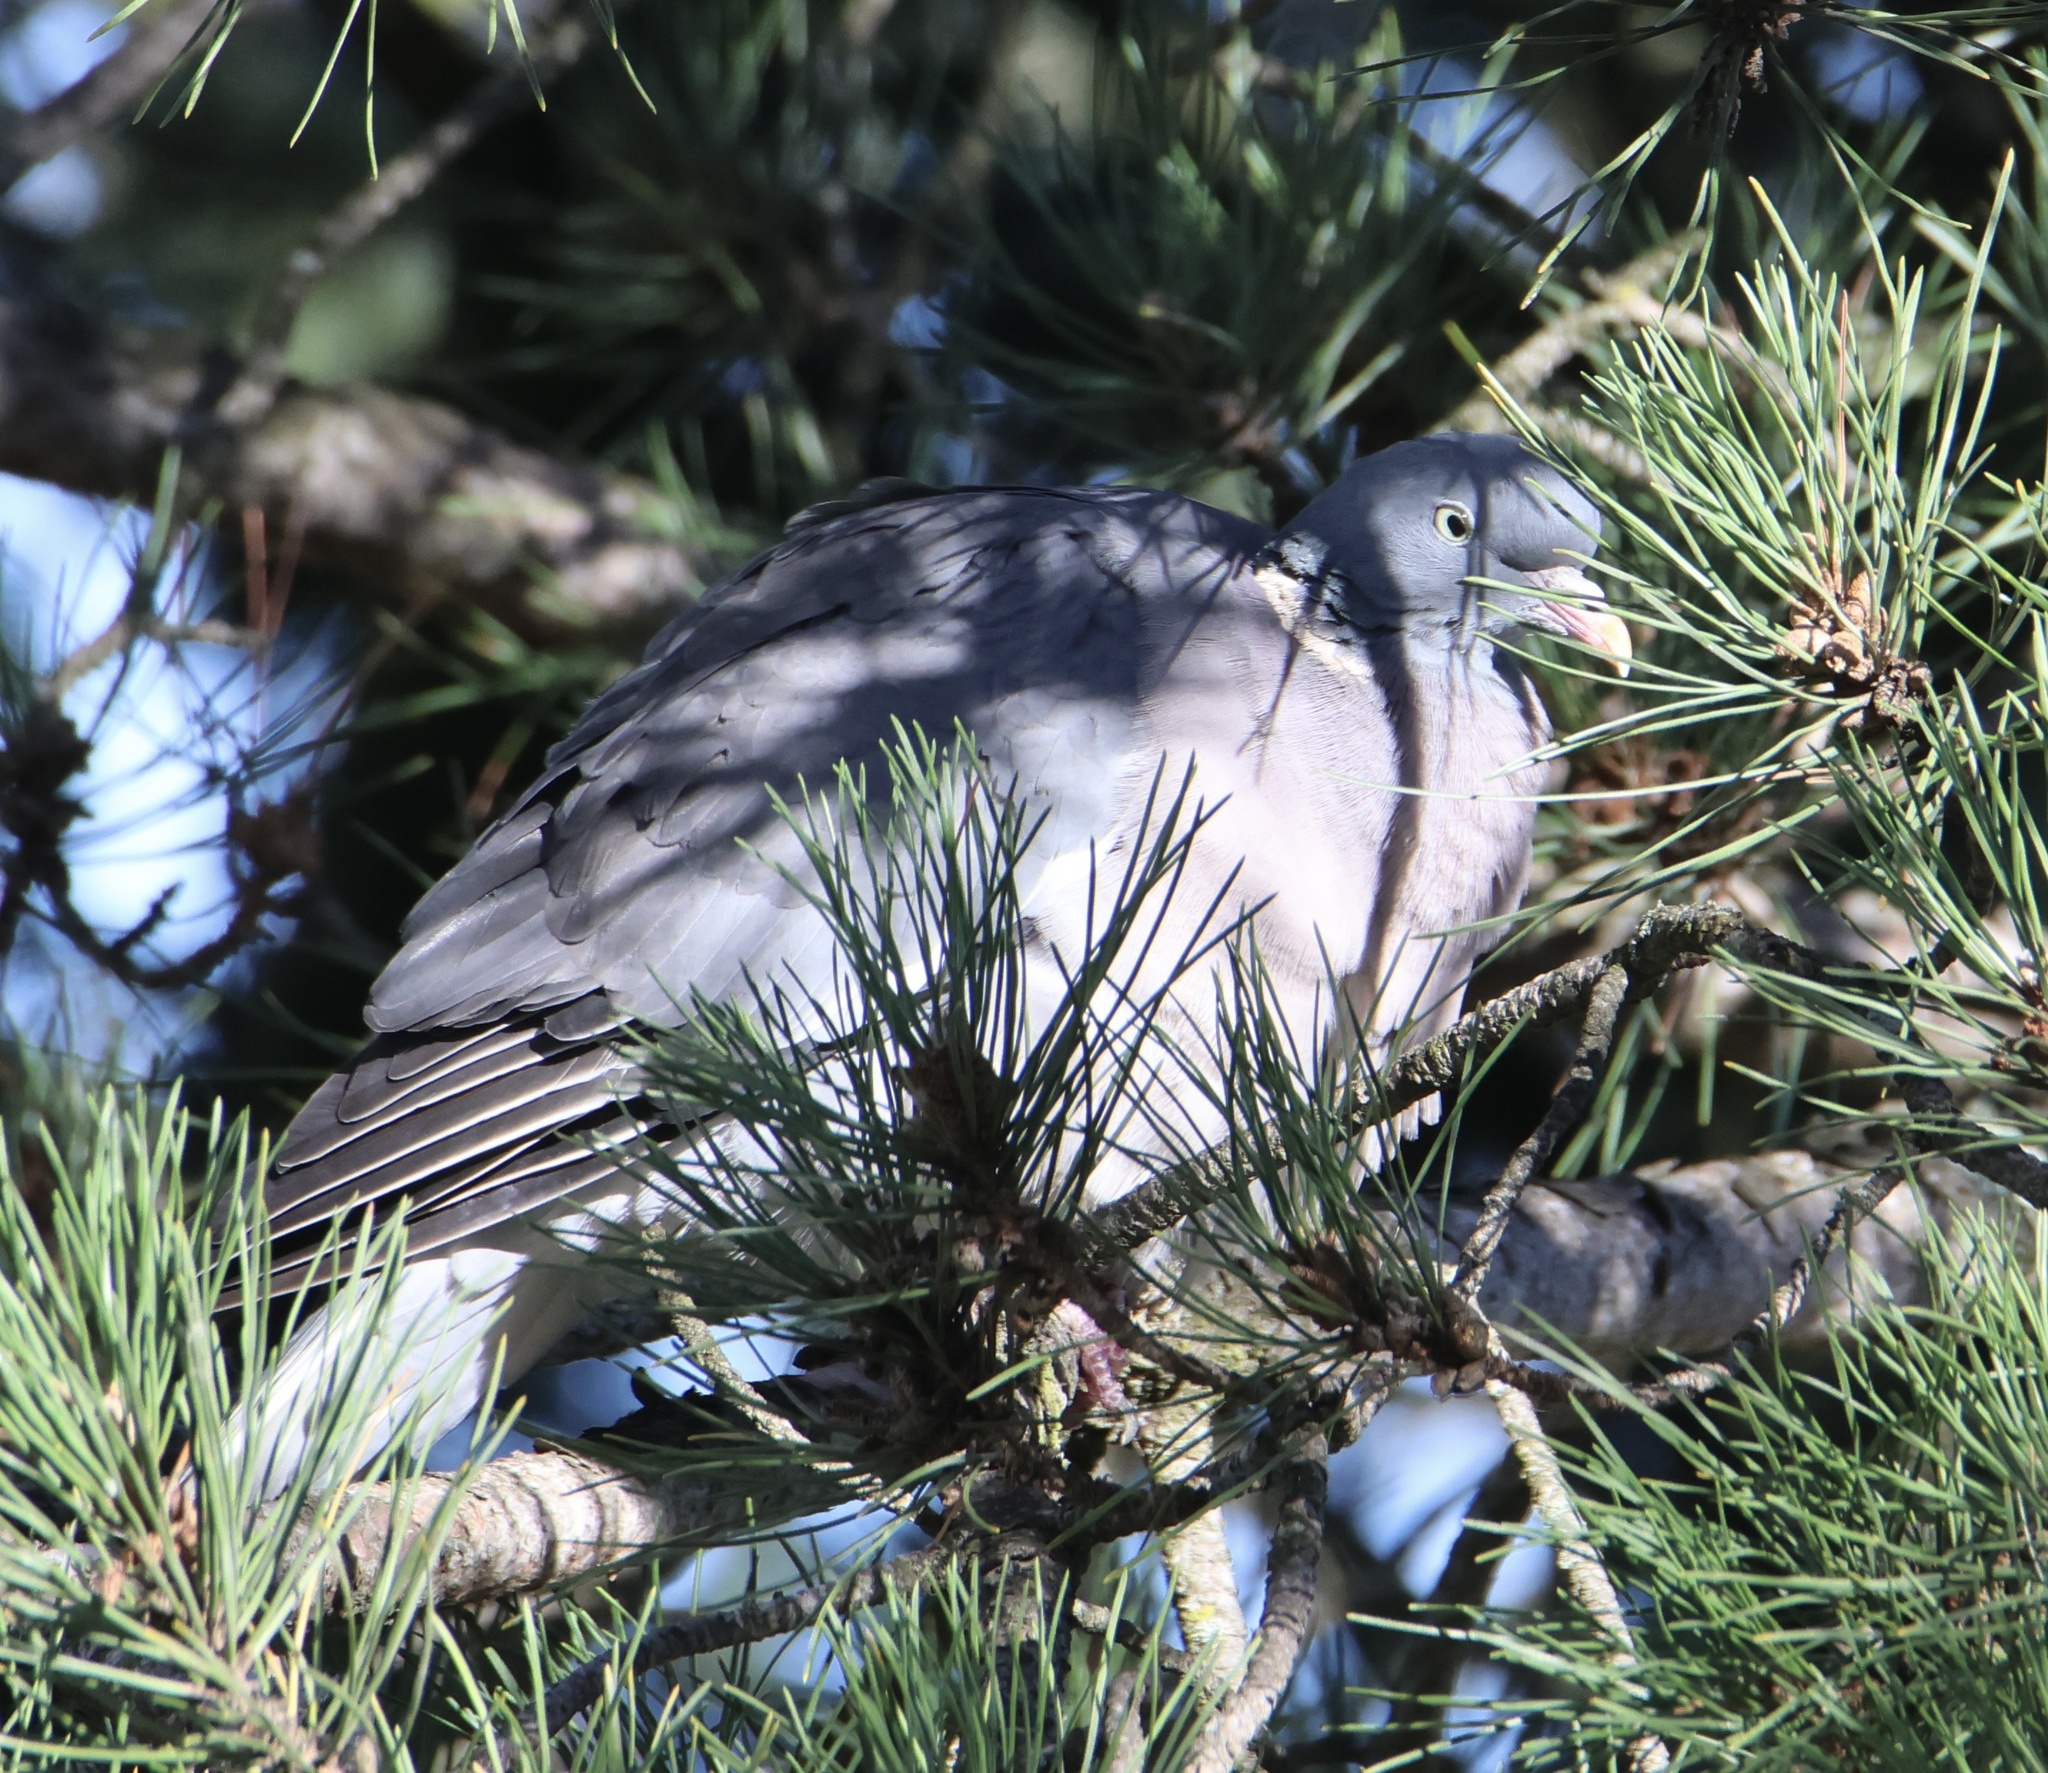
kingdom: Animalia
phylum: Chordata
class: Aves
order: Columbiformes
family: Columbidae
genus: Columba
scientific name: Columba palumbus
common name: Common wood pigeon
